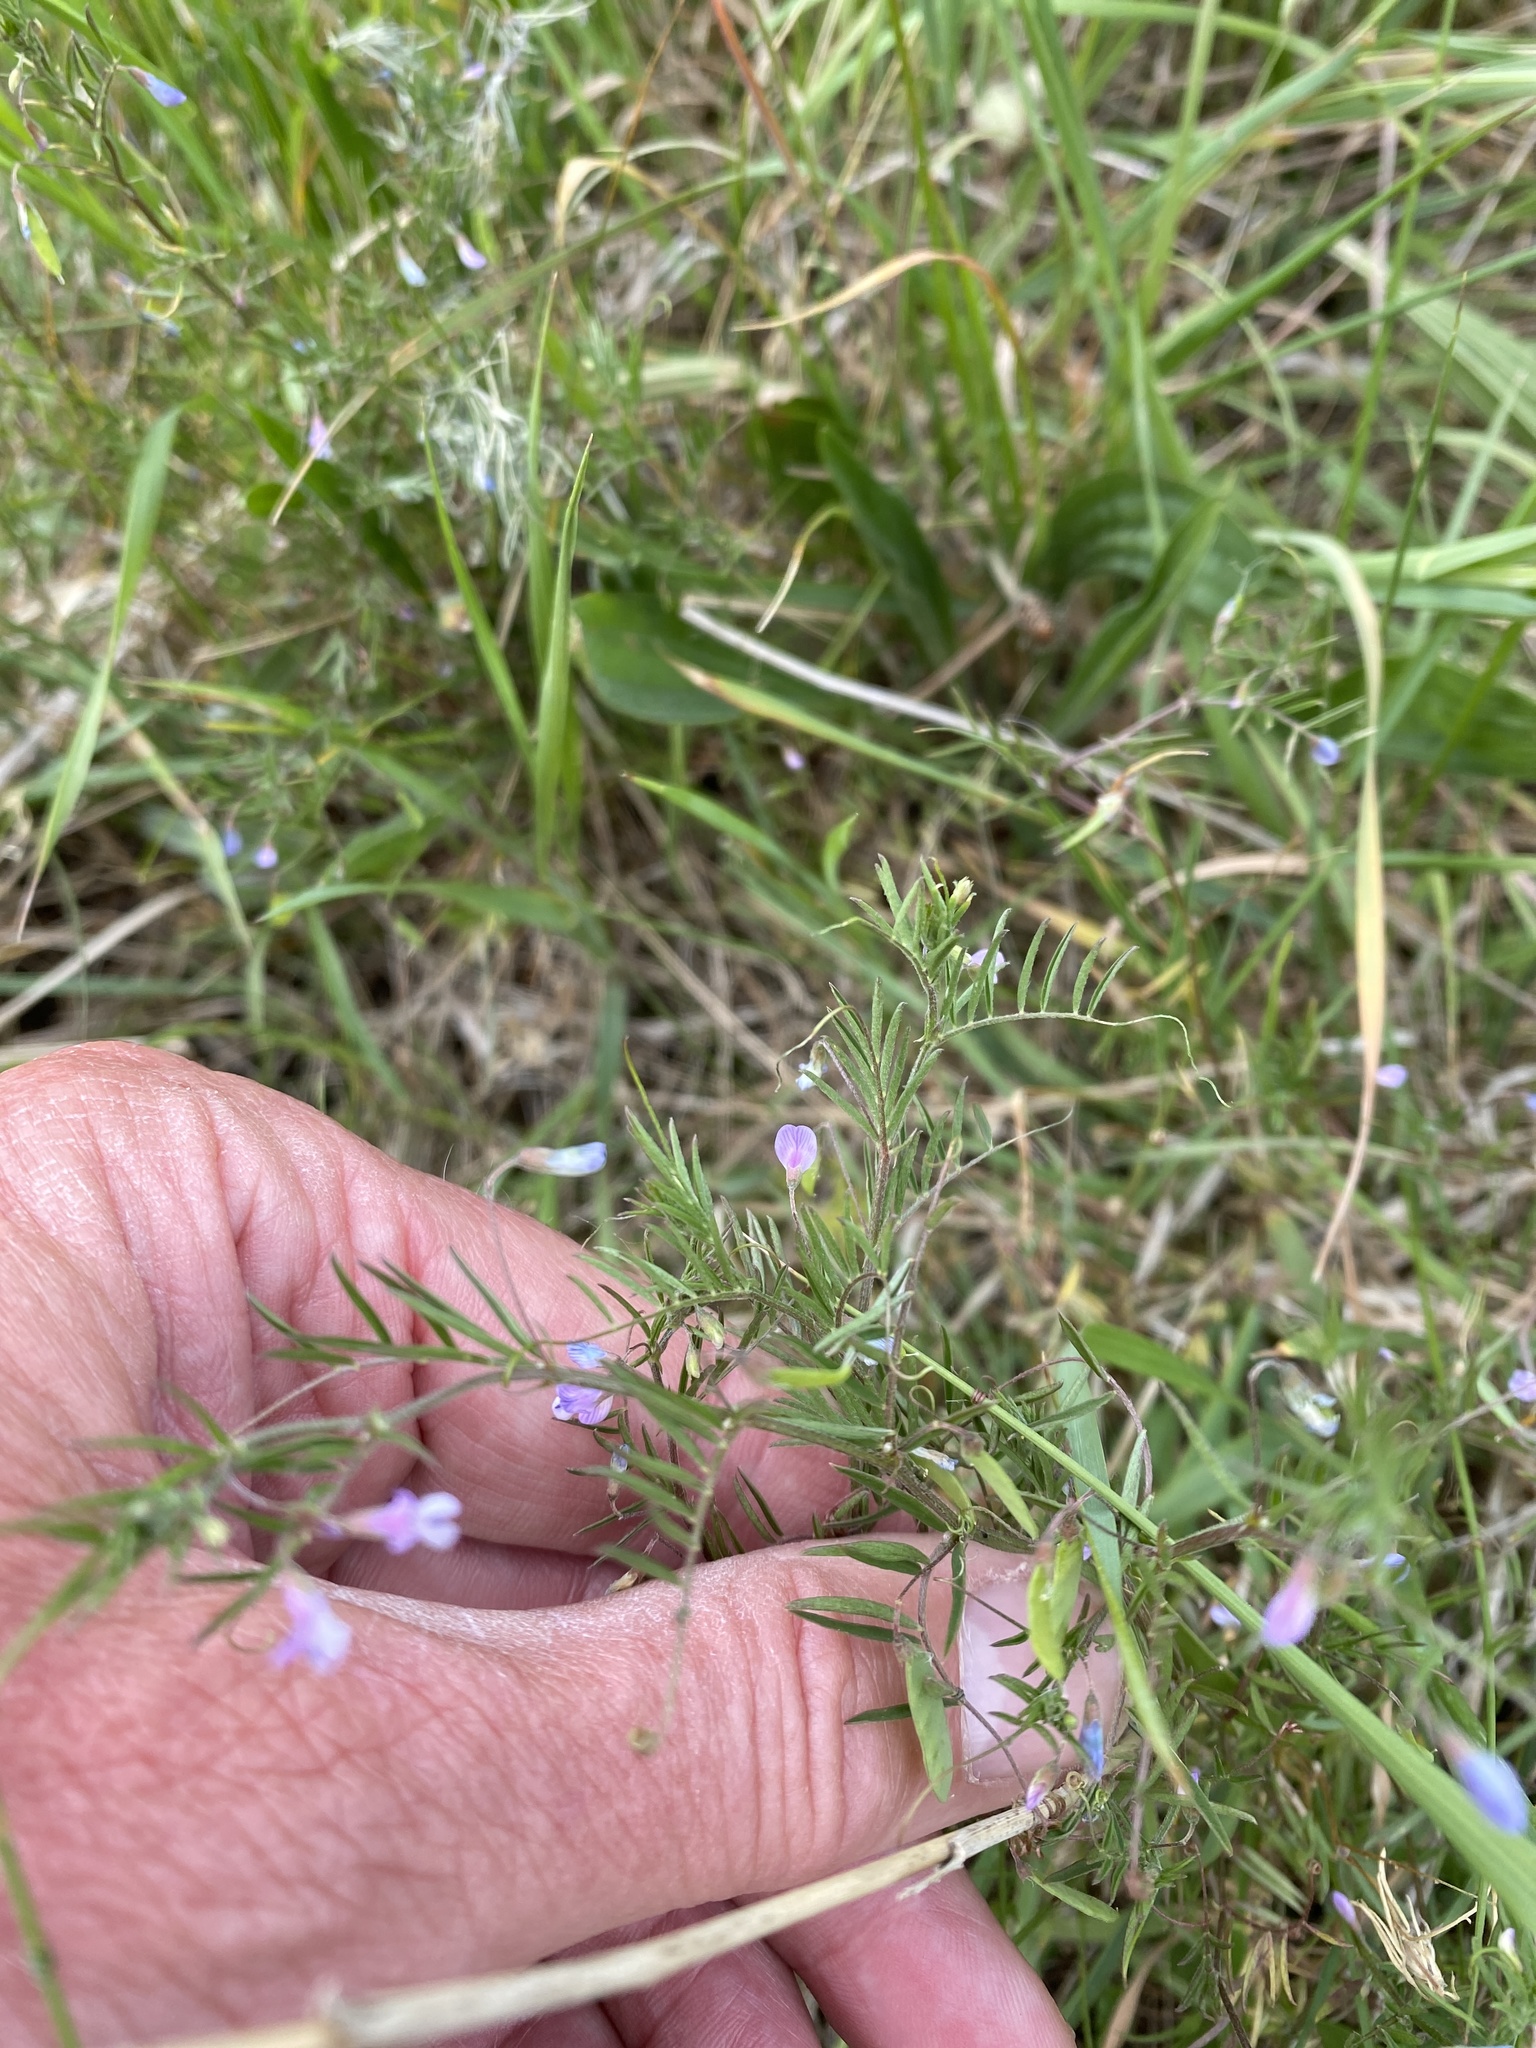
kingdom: Plantae
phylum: Tracheophyta
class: Magnoliopsida
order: Fabales
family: Fabaceae
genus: Vicia
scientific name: Vicia tetrasperma
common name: Smooth tare
